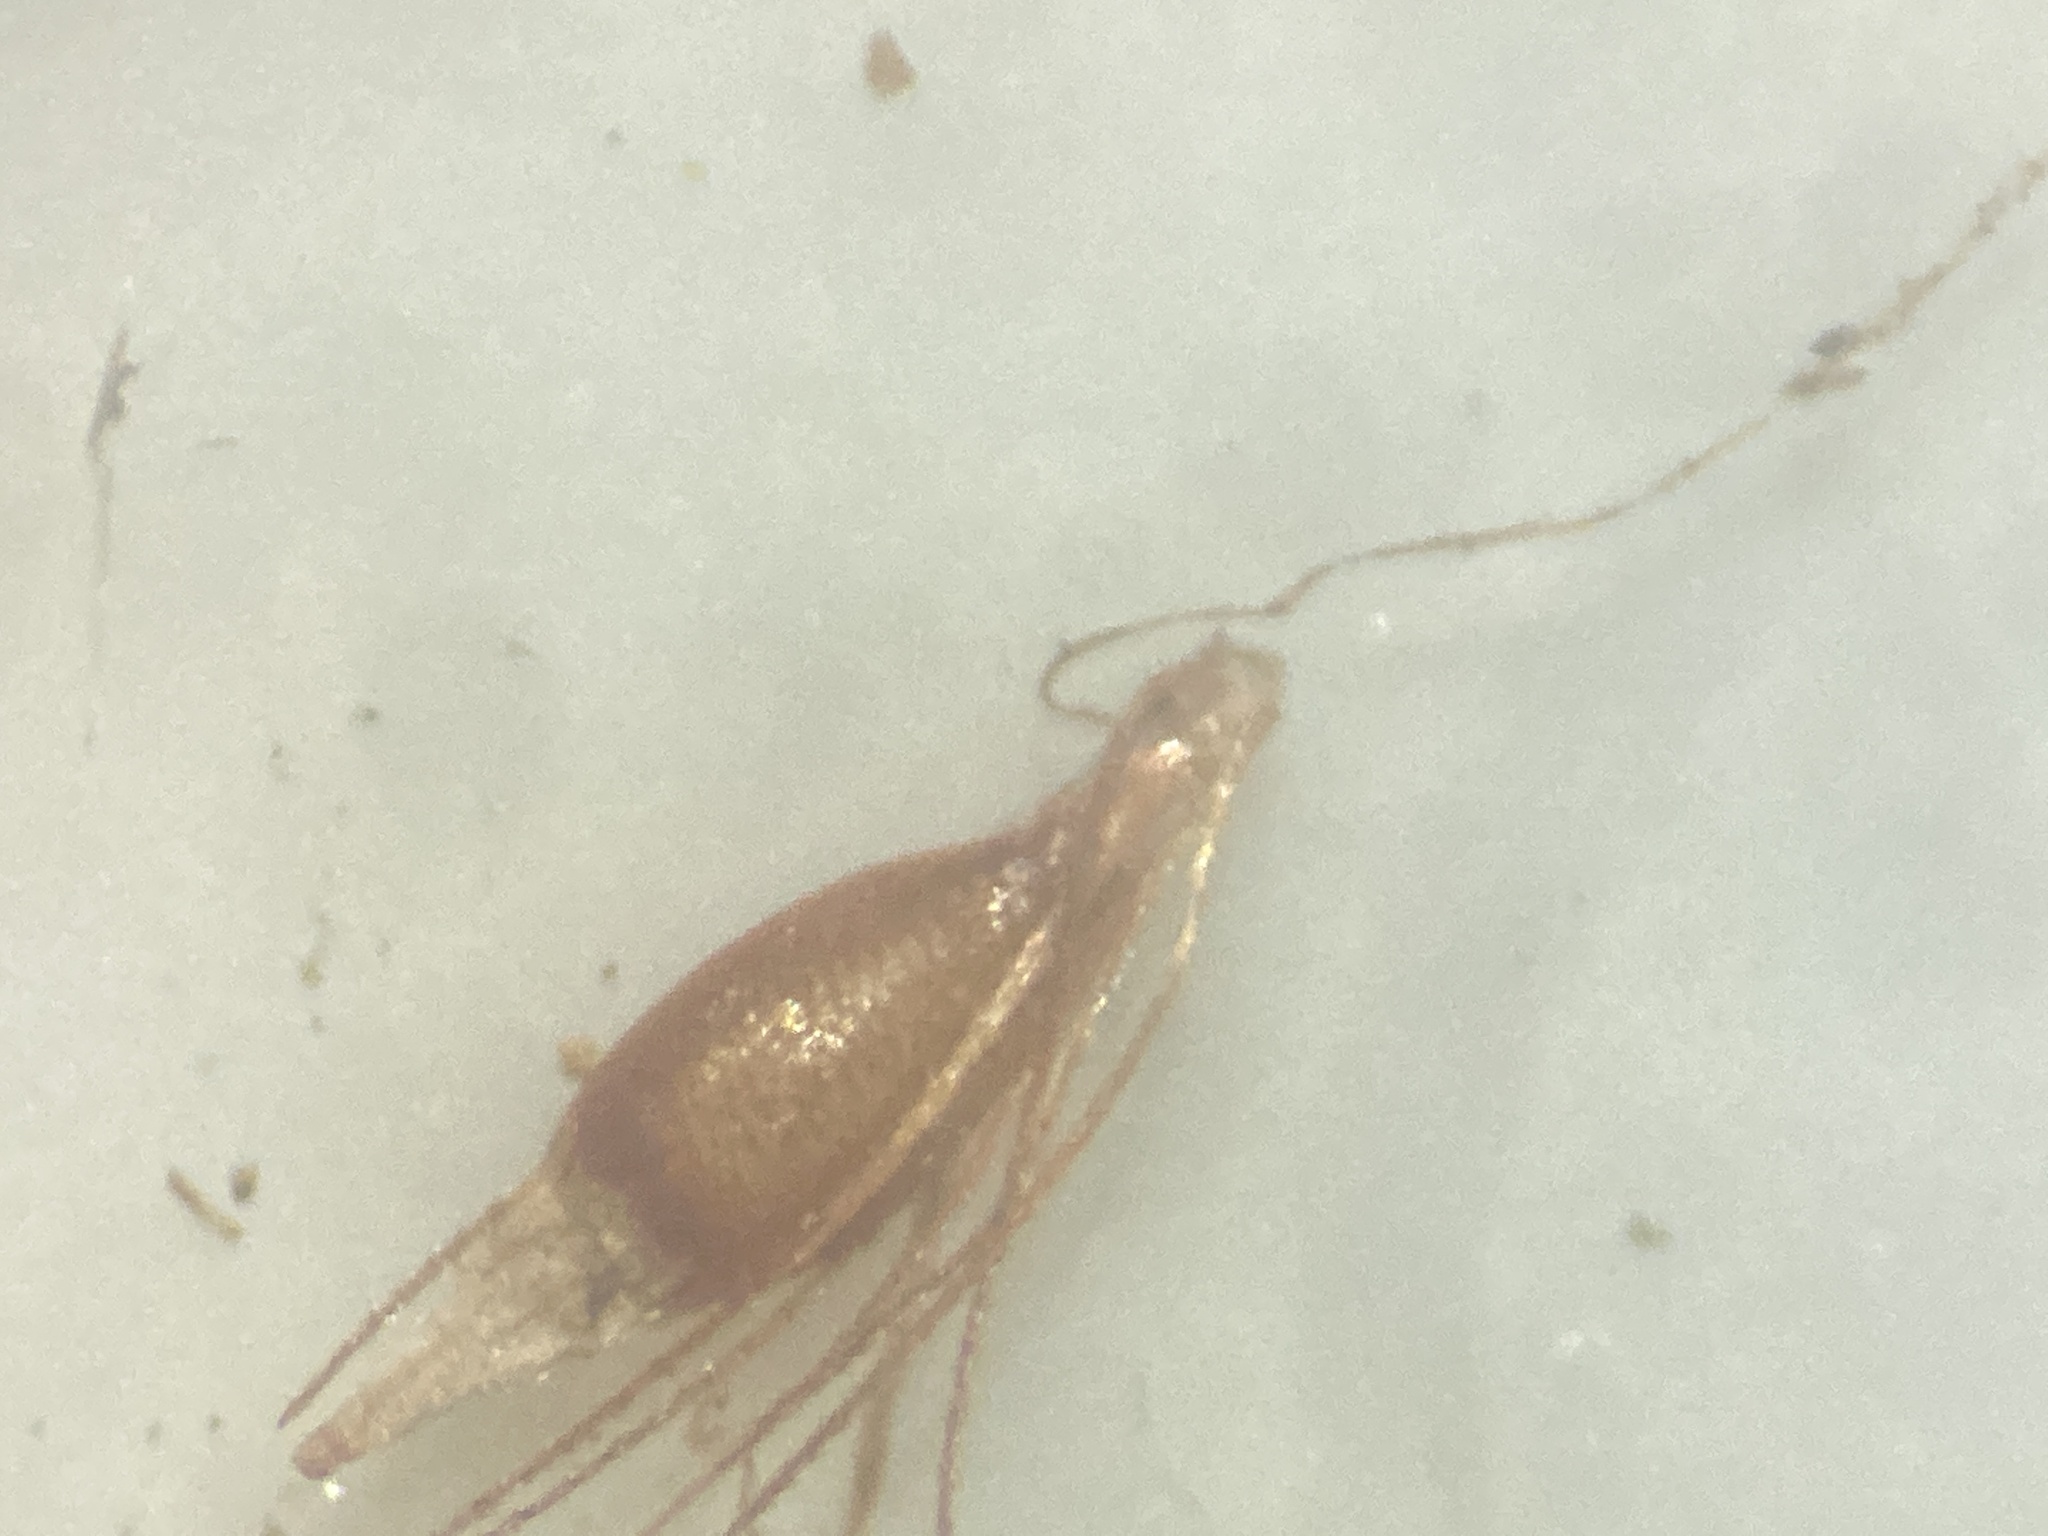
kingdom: Plantae
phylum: Tracheophyta
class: Liliopsida
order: Poales
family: Cyperaceae
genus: Rhynchospora
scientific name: Rhynchospora capillacea
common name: Capillary beakrush
